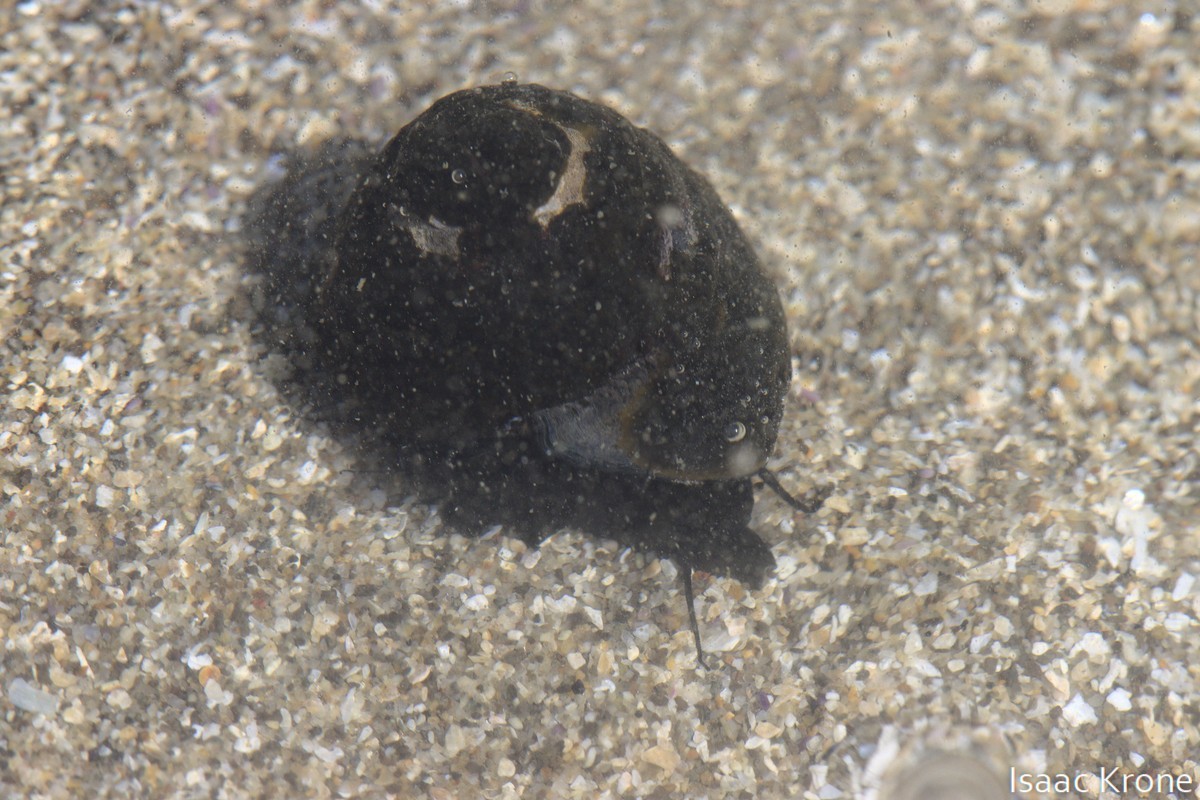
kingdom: Animalia
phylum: Mollusca
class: Gastropoda
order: Trochida
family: Tegulidae
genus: Tegula
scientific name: Tegula funebralis
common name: Black tegula
